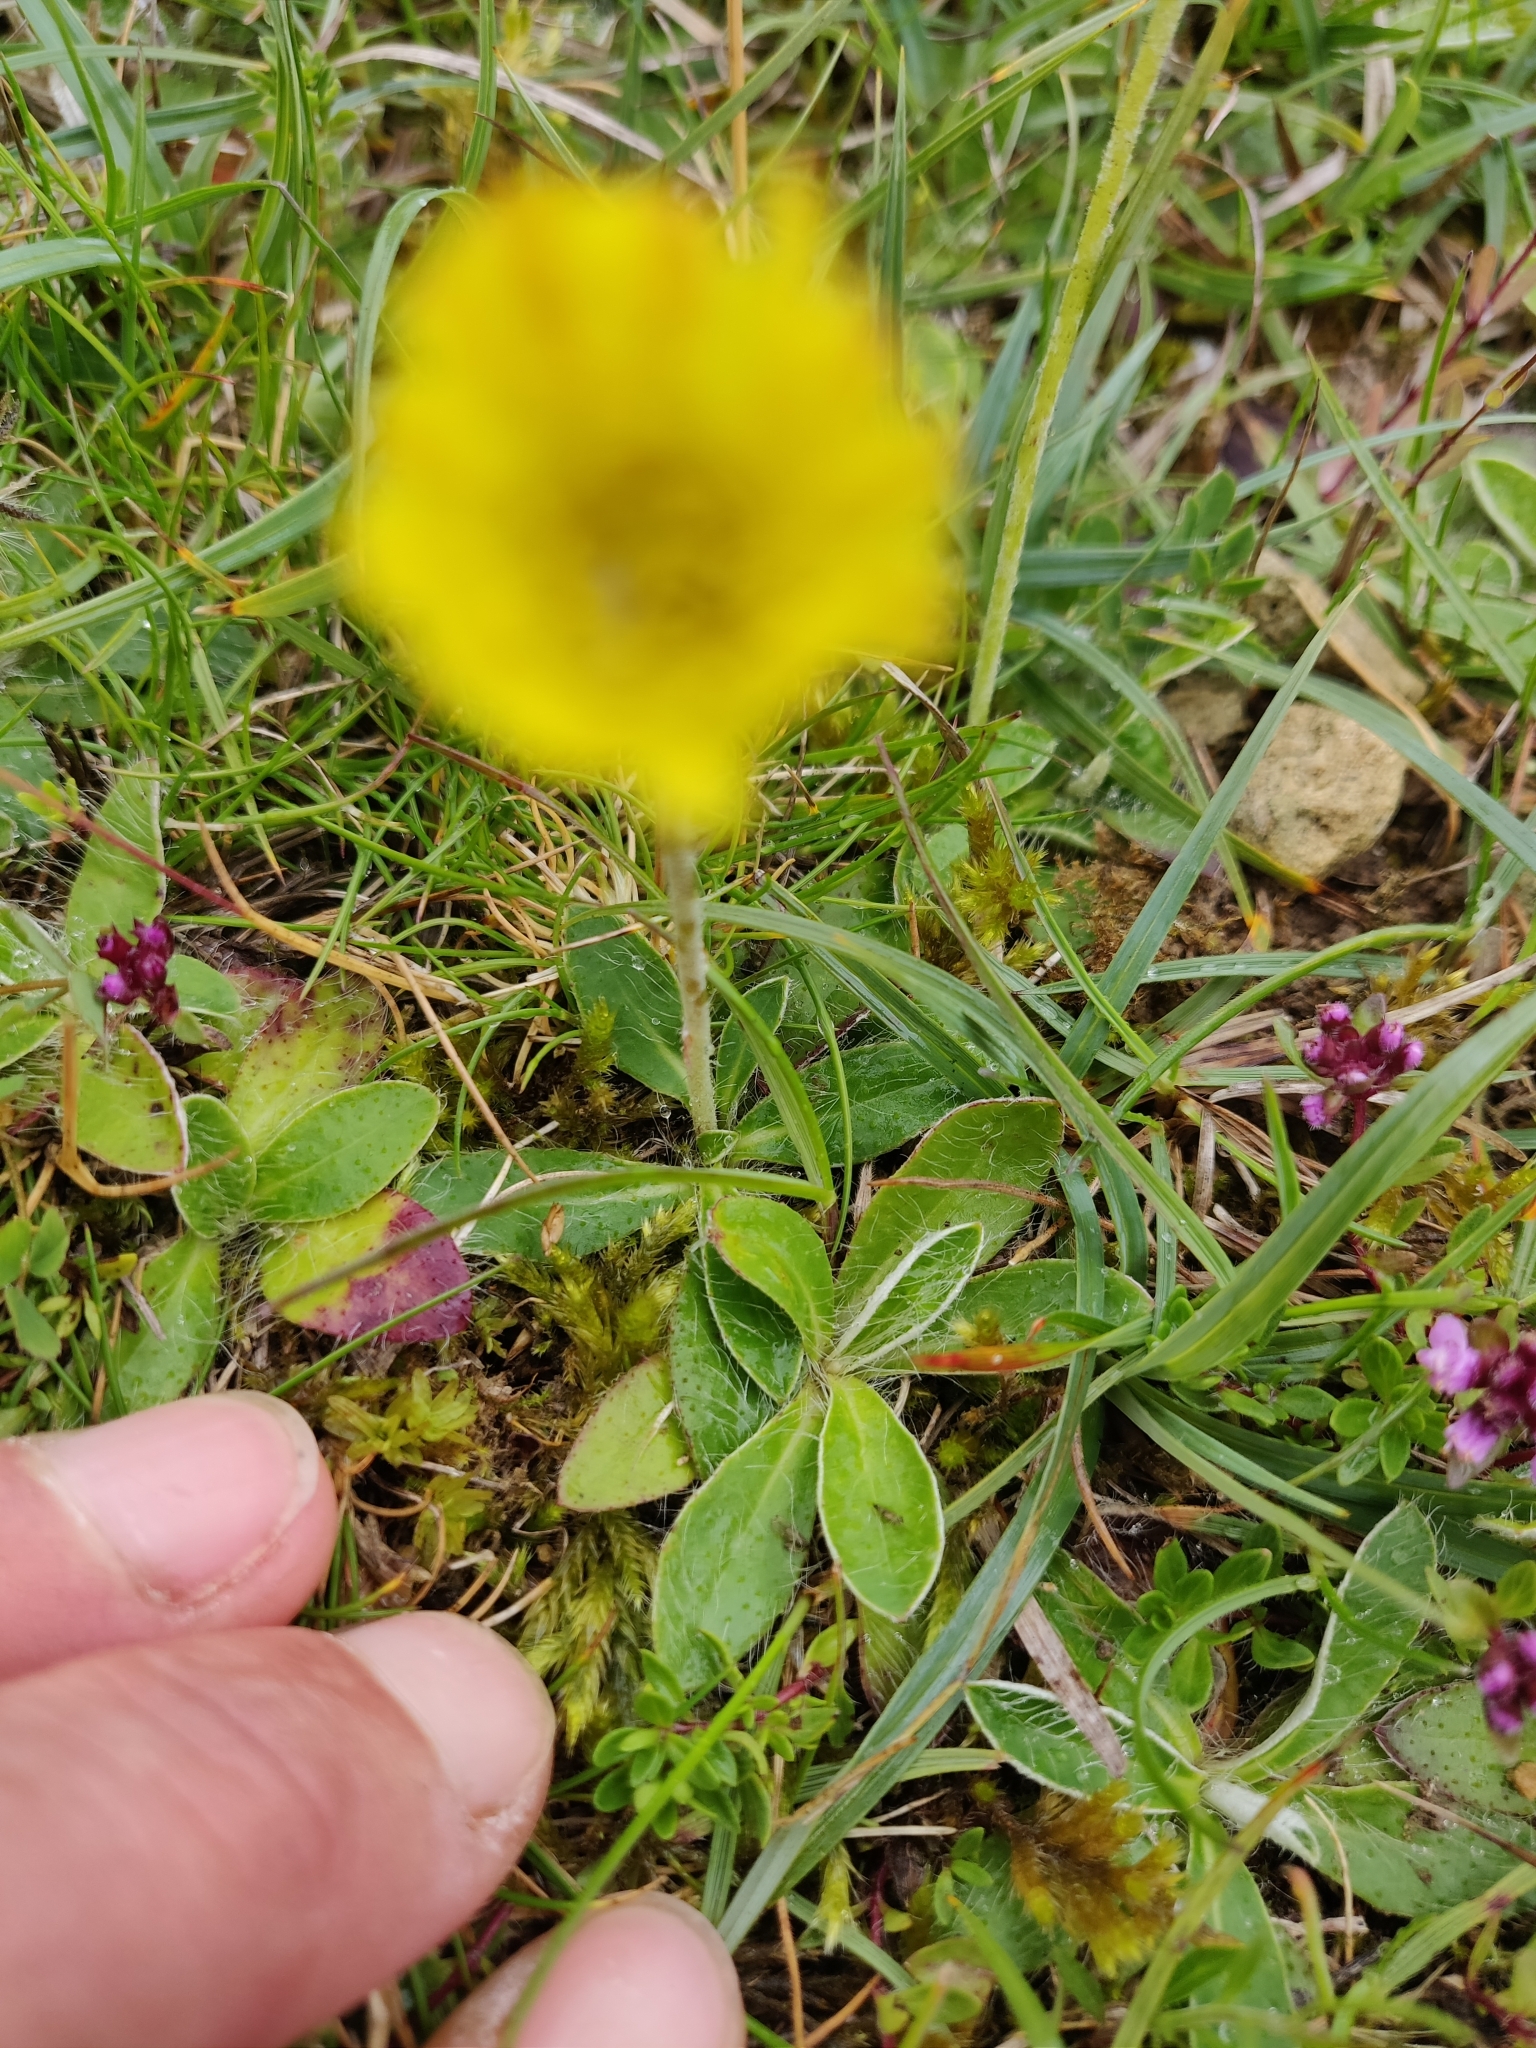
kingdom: Plantae
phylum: Tracheophyta
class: Magnoliopsida
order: Asterales
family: Asteraceae
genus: Pilosella
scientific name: Pilosella officinarum
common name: Mouse-ear hawkweed
